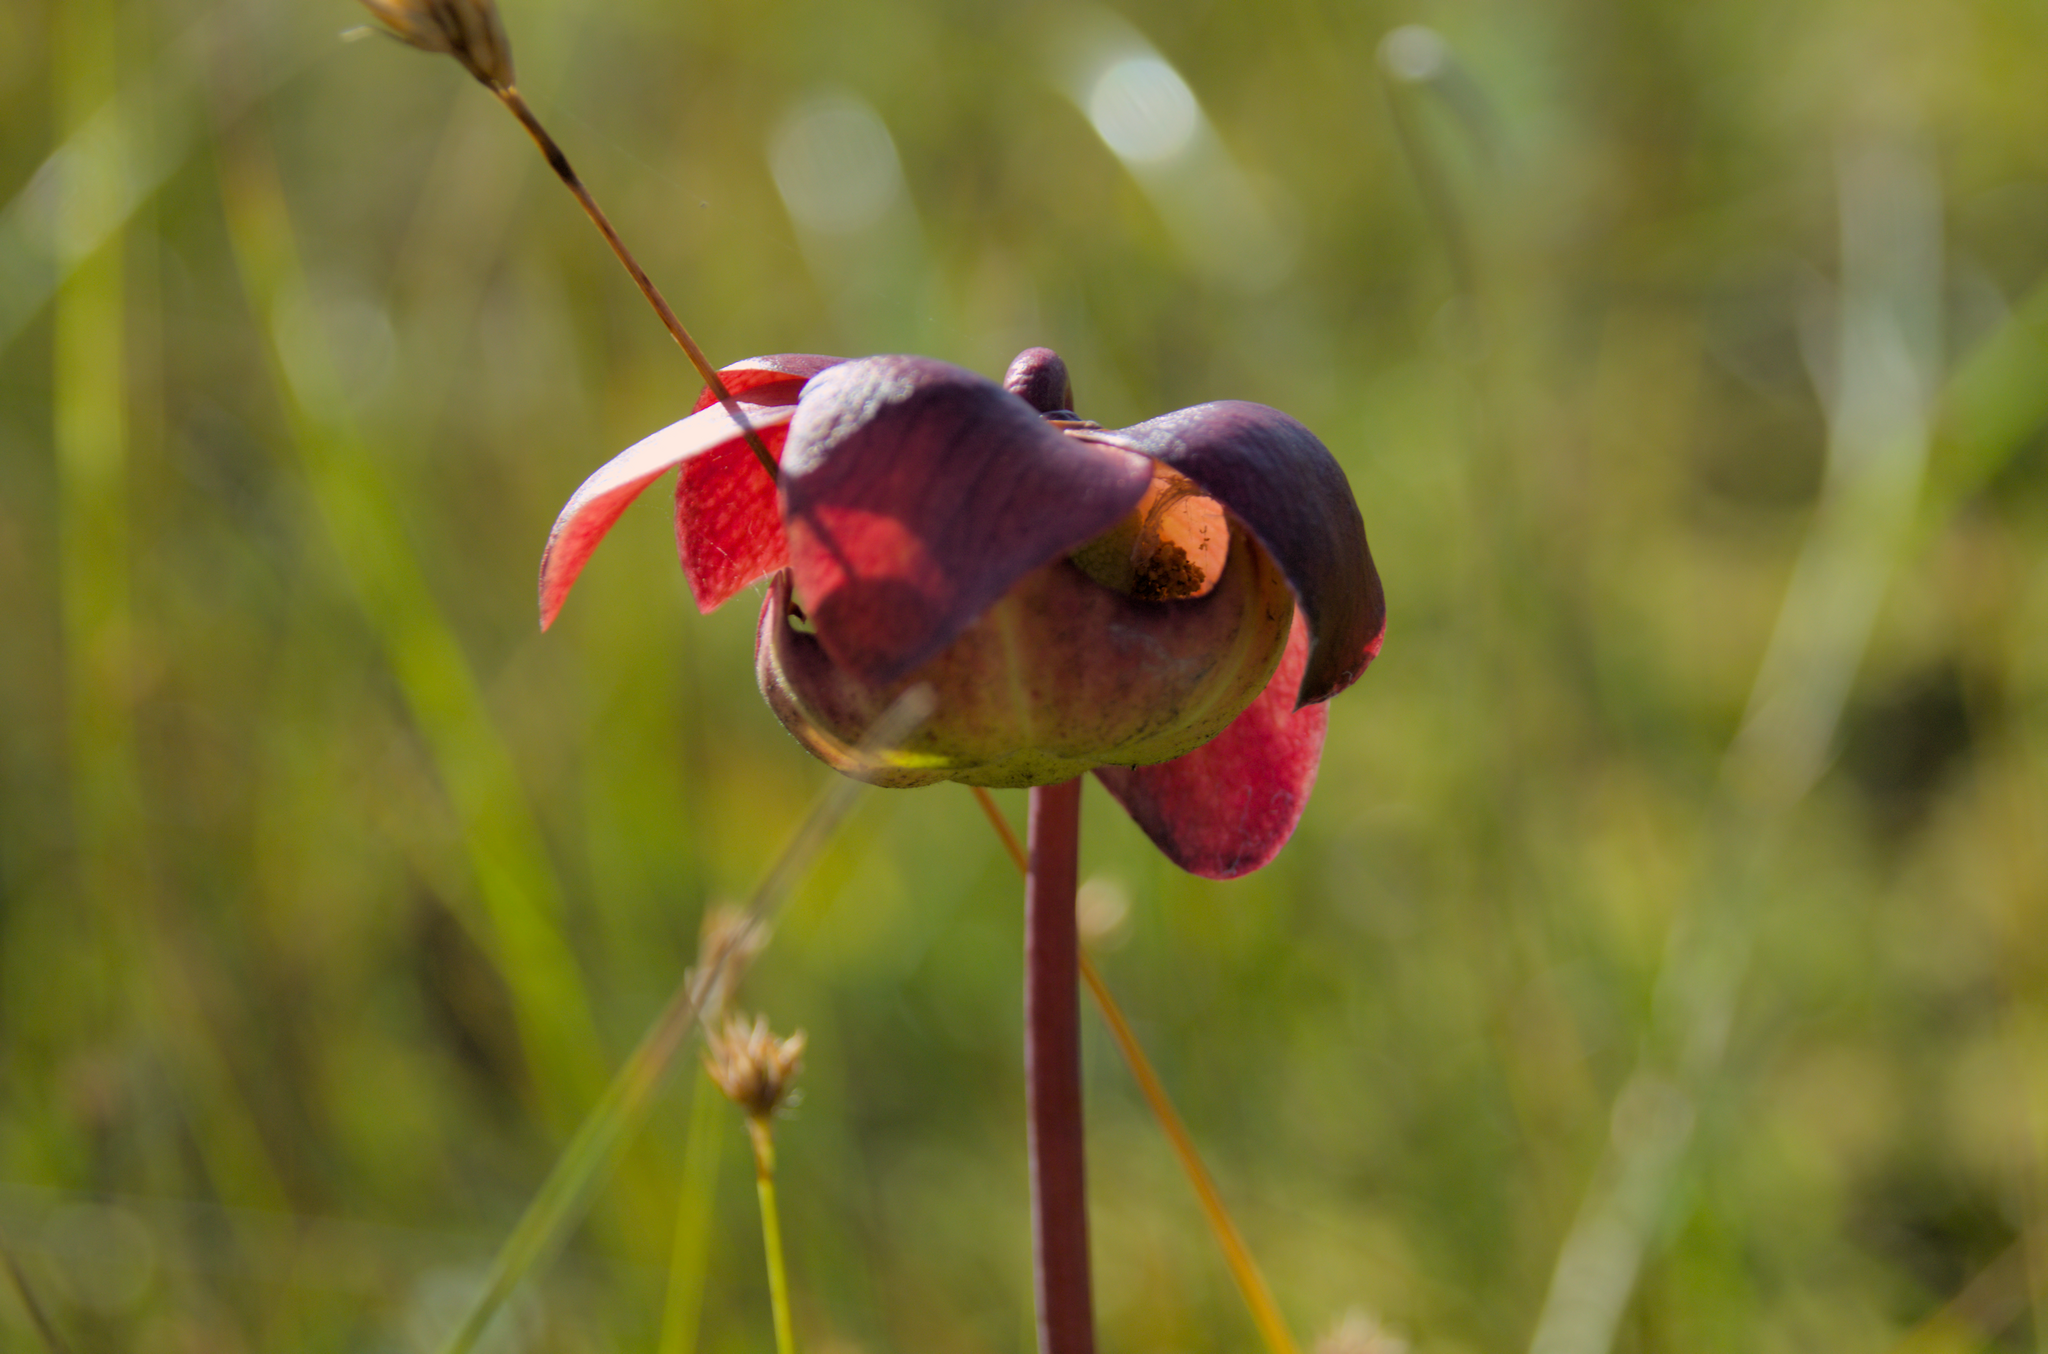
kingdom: Plantae
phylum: Tracheophyta
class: Magnoliopsida
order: Ericales
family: Sarraceniaceae
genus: Sarracenia
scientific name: Sarracenia purpurea
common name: Pitcherplant
